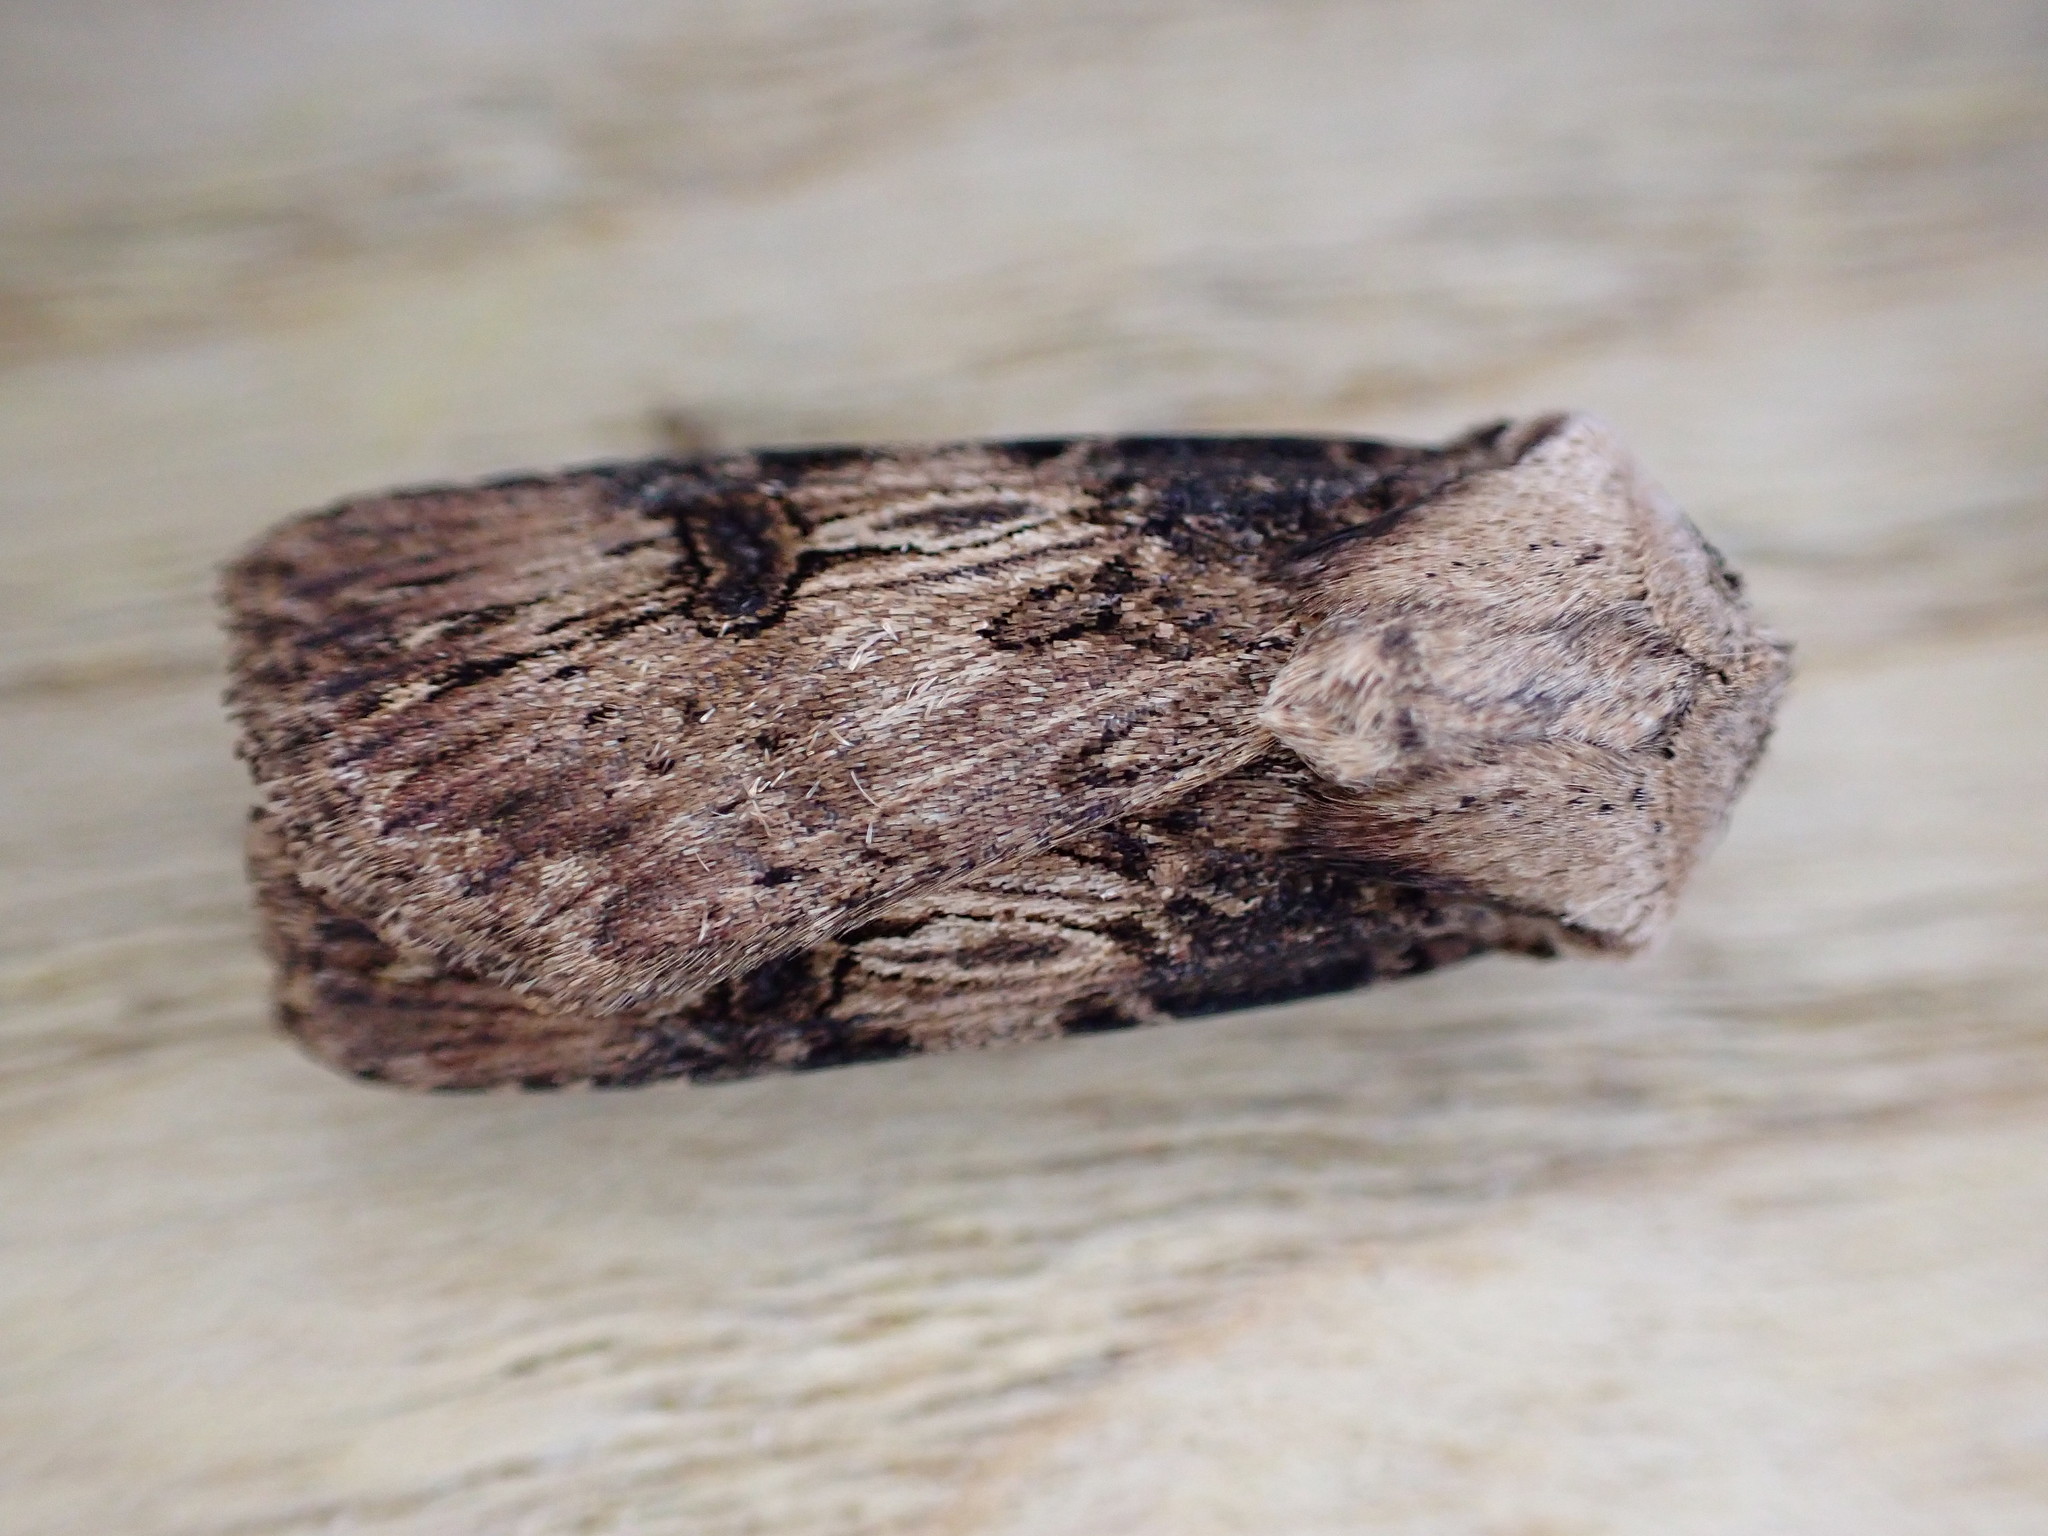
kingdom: Animalia
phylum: Arthropoda
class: Insecta
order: Lepidoptera
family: Noctuidae
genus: Agrotis
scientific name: Agrotis puta
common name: Shuttle-shaped dart
